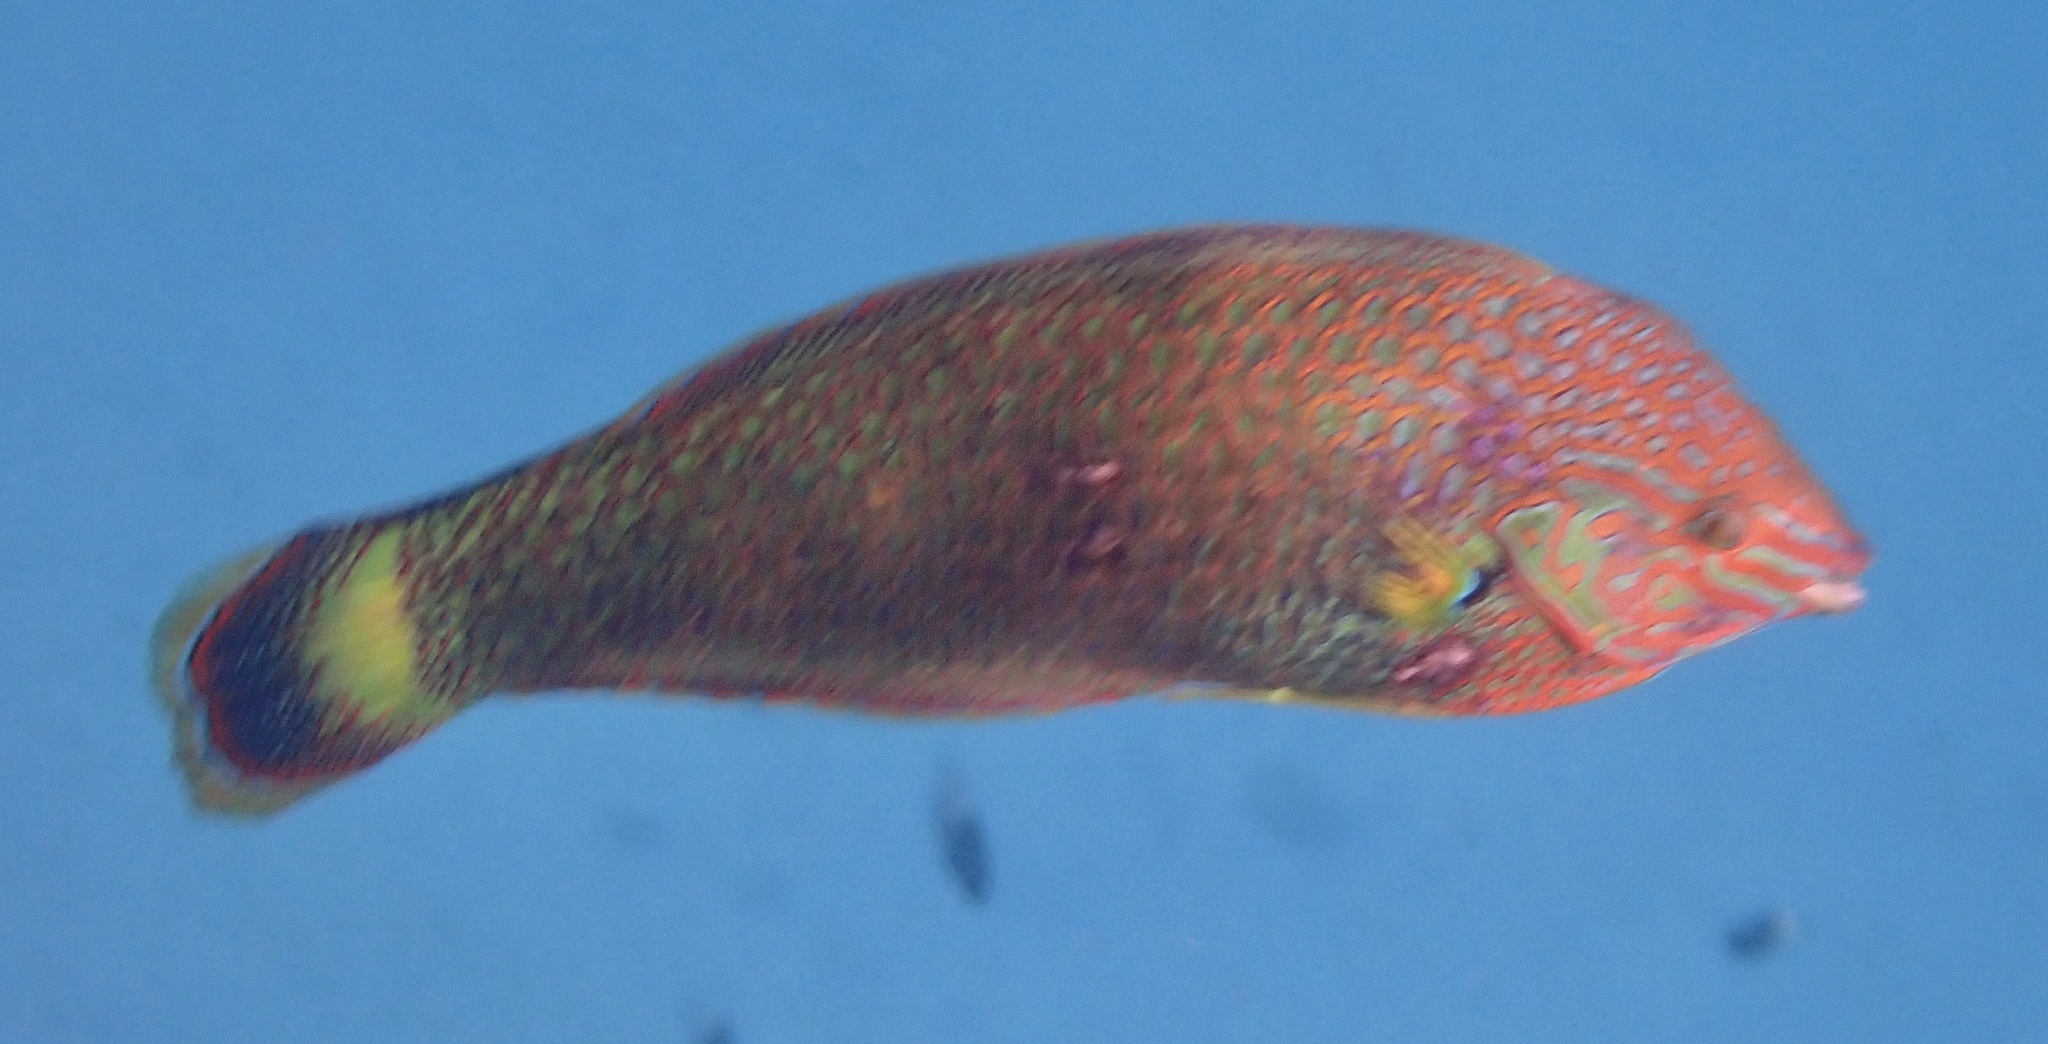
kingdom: Animalia
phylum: Chordata
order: Perciformes
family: Labridae
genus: Halichoeres
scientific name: Halichoeres marginatus
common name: Dusky wrasse
